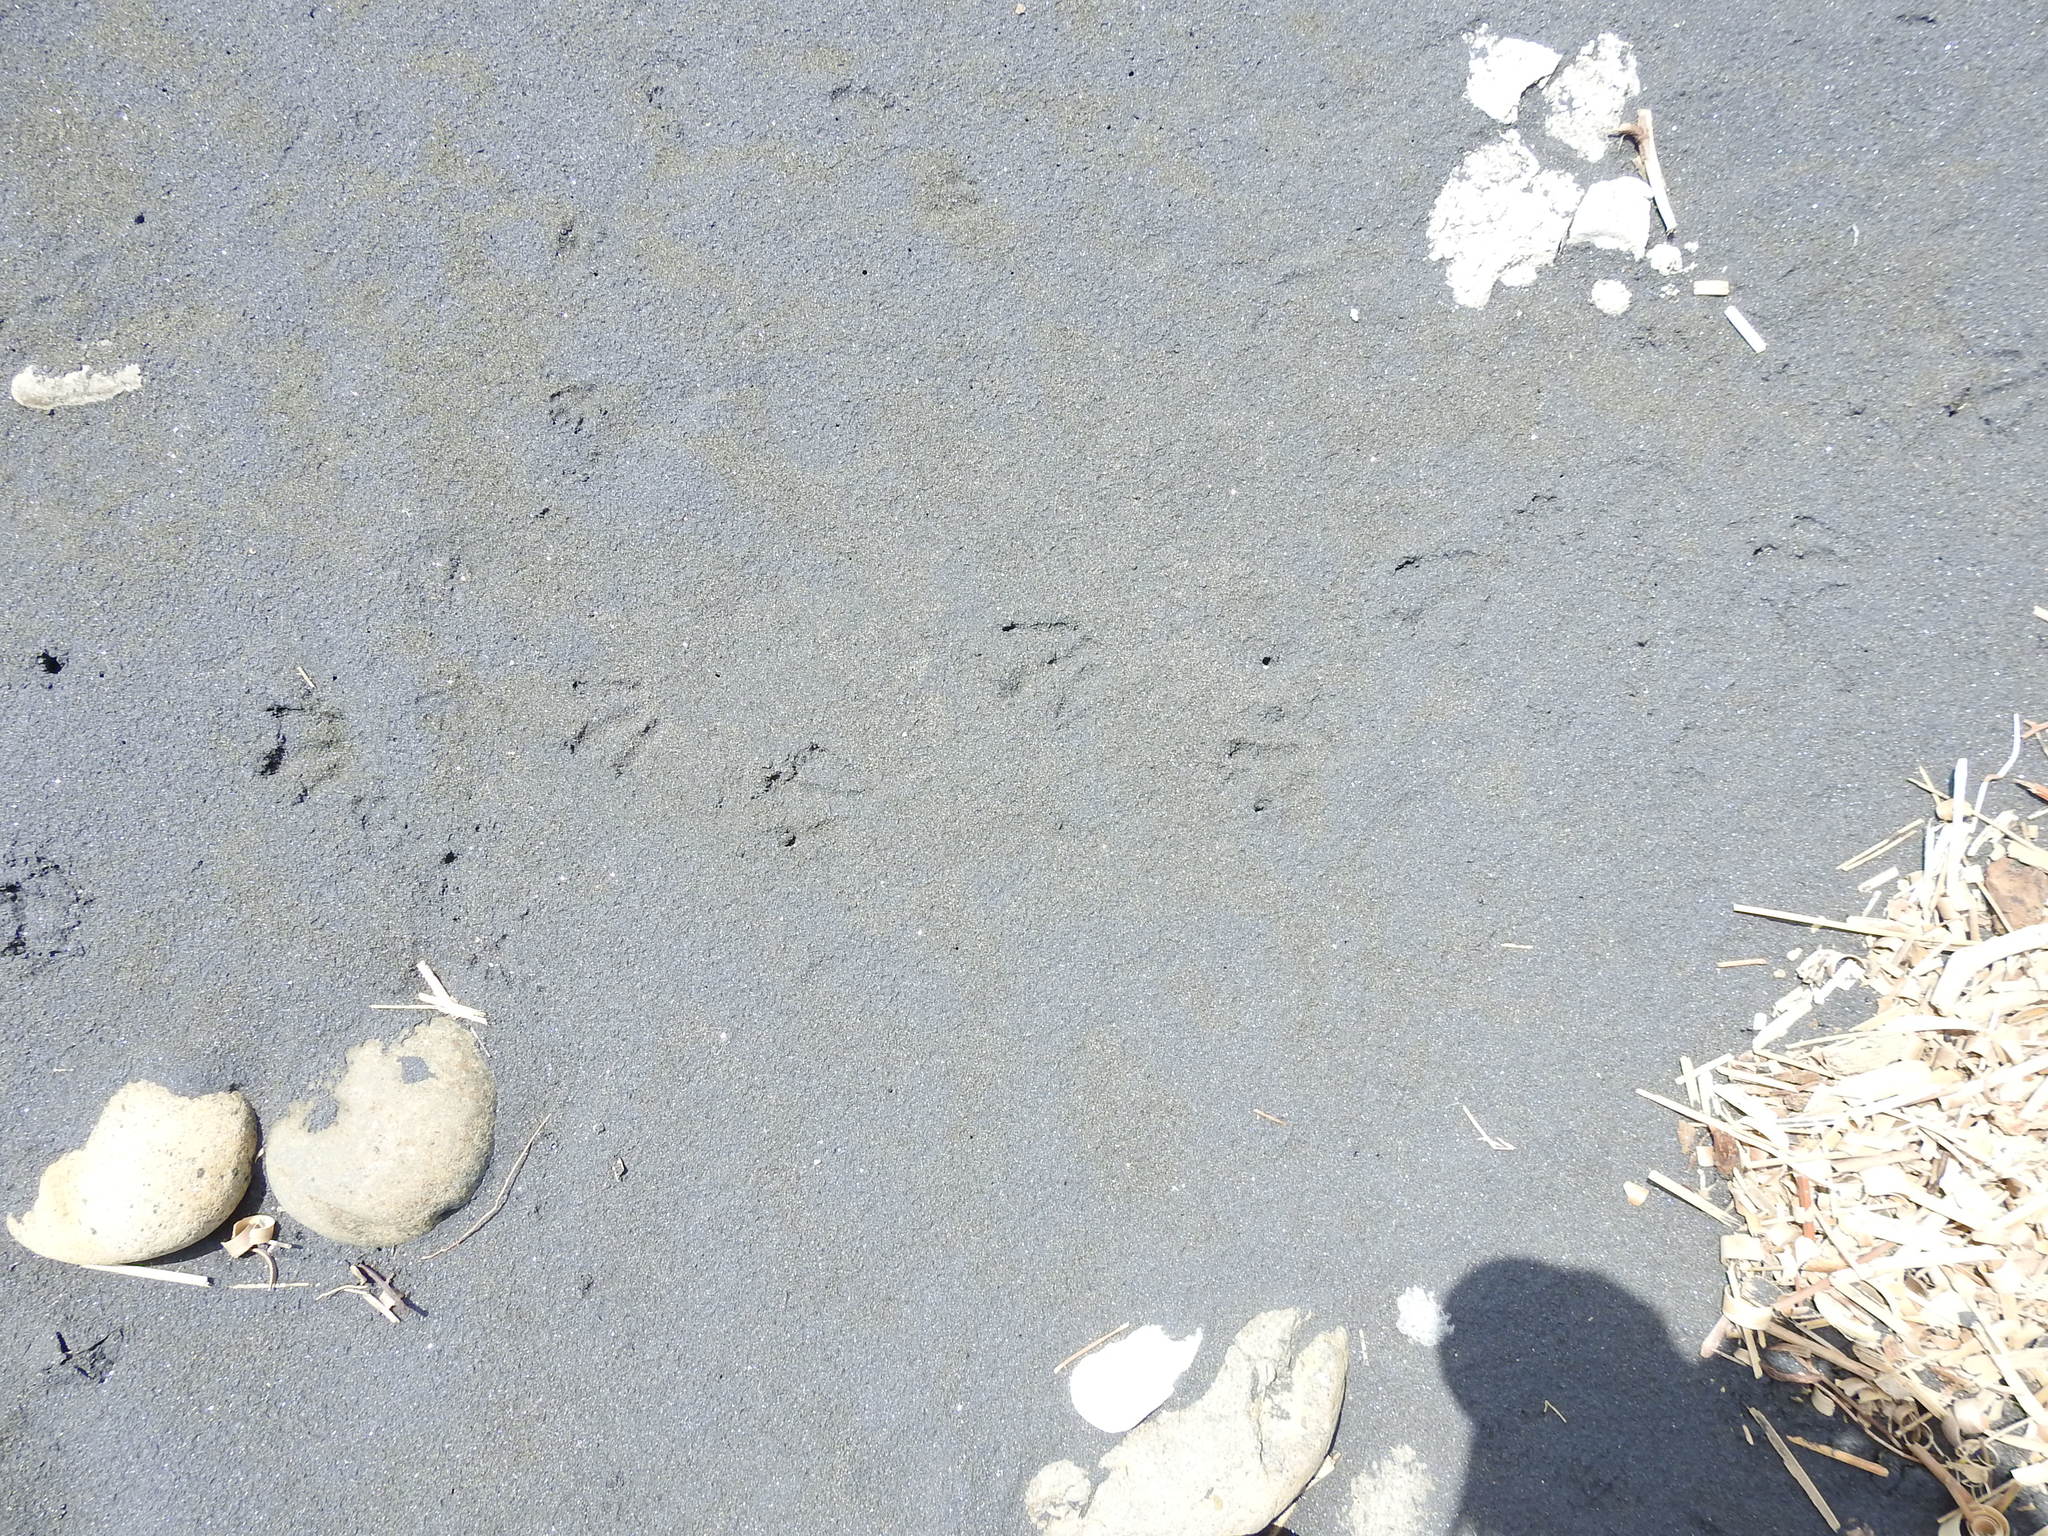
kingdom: Animalia
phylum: Chordata
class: Aves
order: Sphenisciformes
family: Spheniscidae
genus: Eudyptula
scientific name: Eudyptula minor
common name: Little penguin
